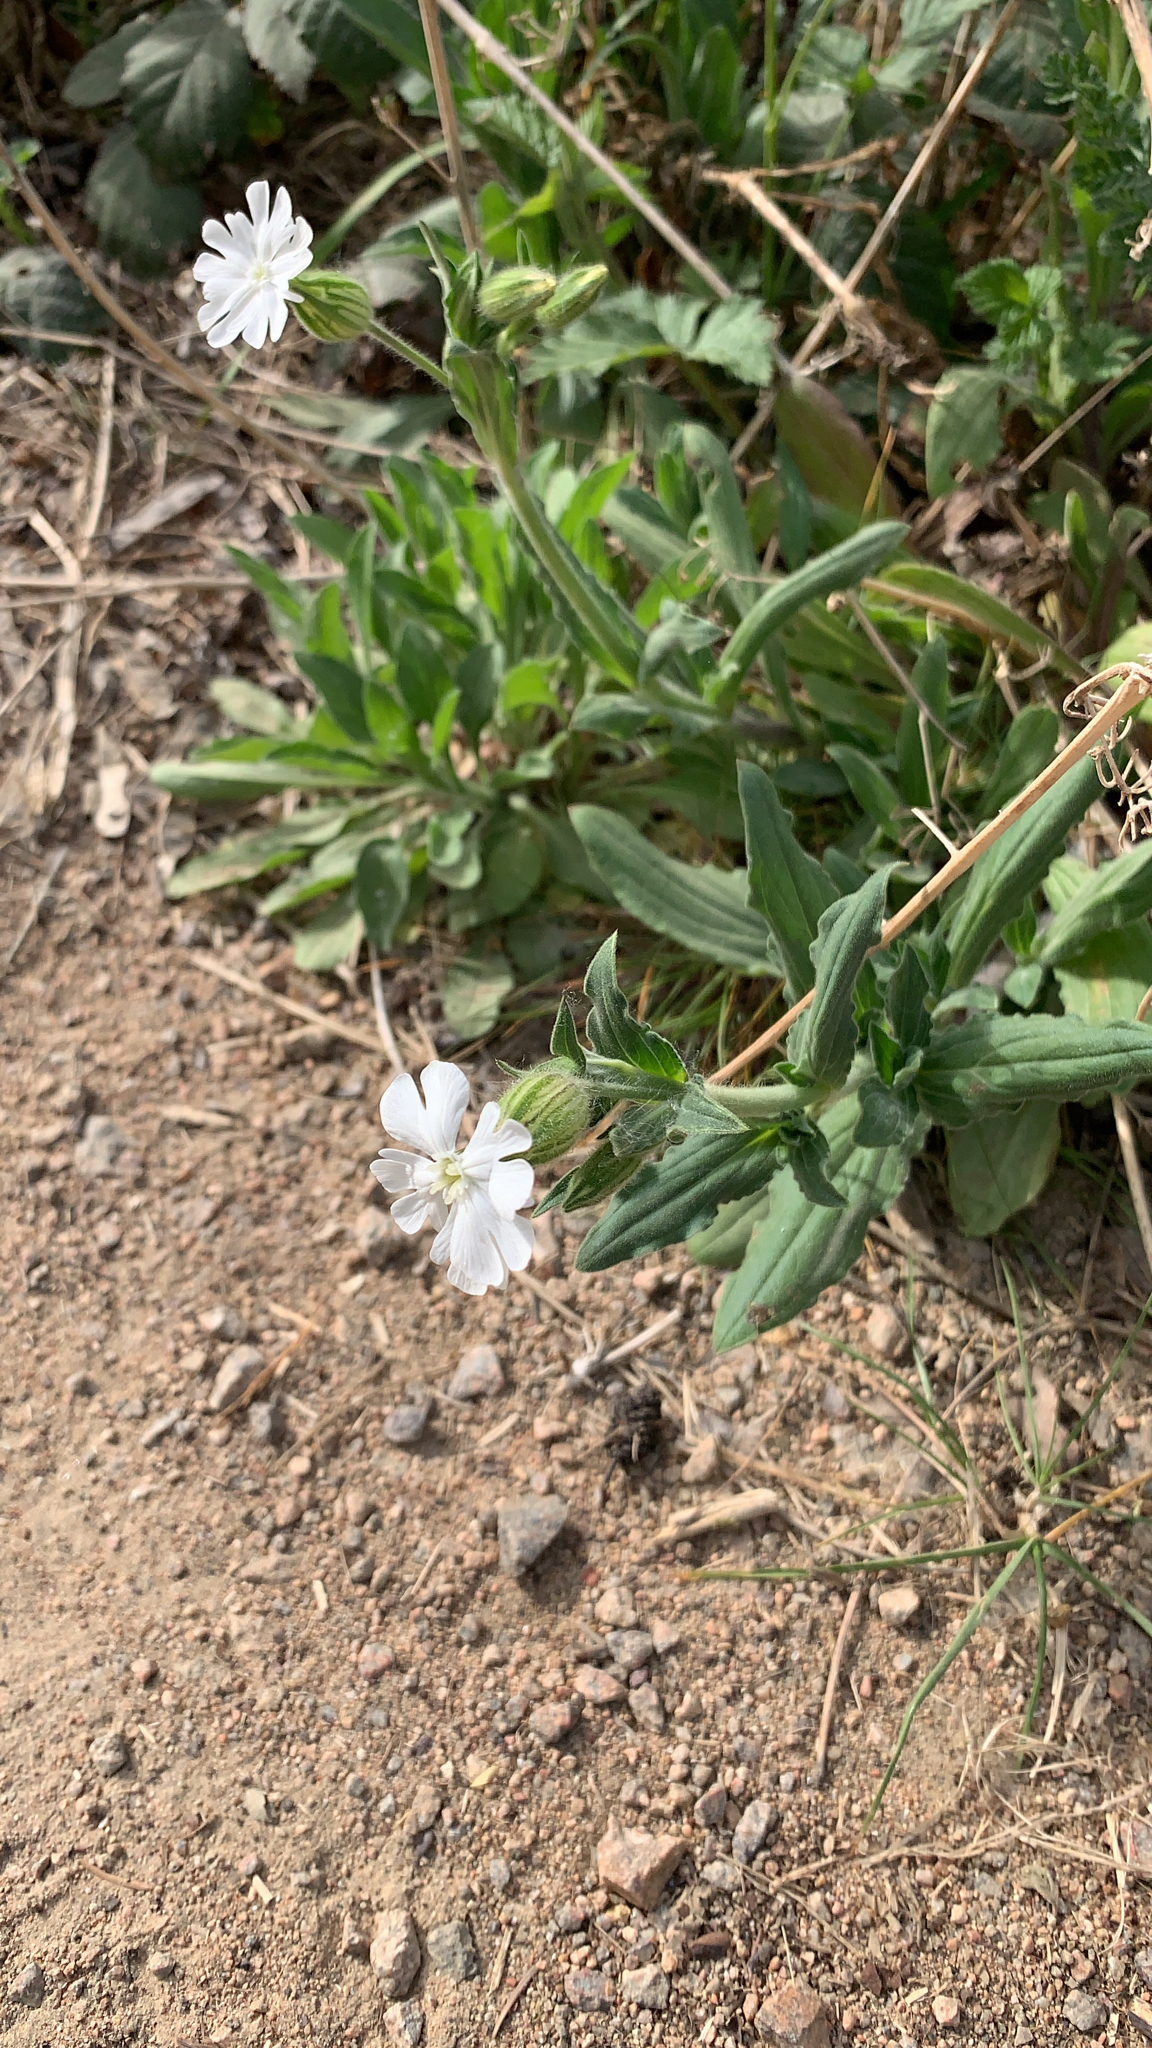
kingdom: Plantae
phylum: Tracheophyta
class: Magnoliopsida
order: Caryophyllales
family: Caryophyllaceae
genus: Silene
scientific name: Silene latifolia
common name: White campion
